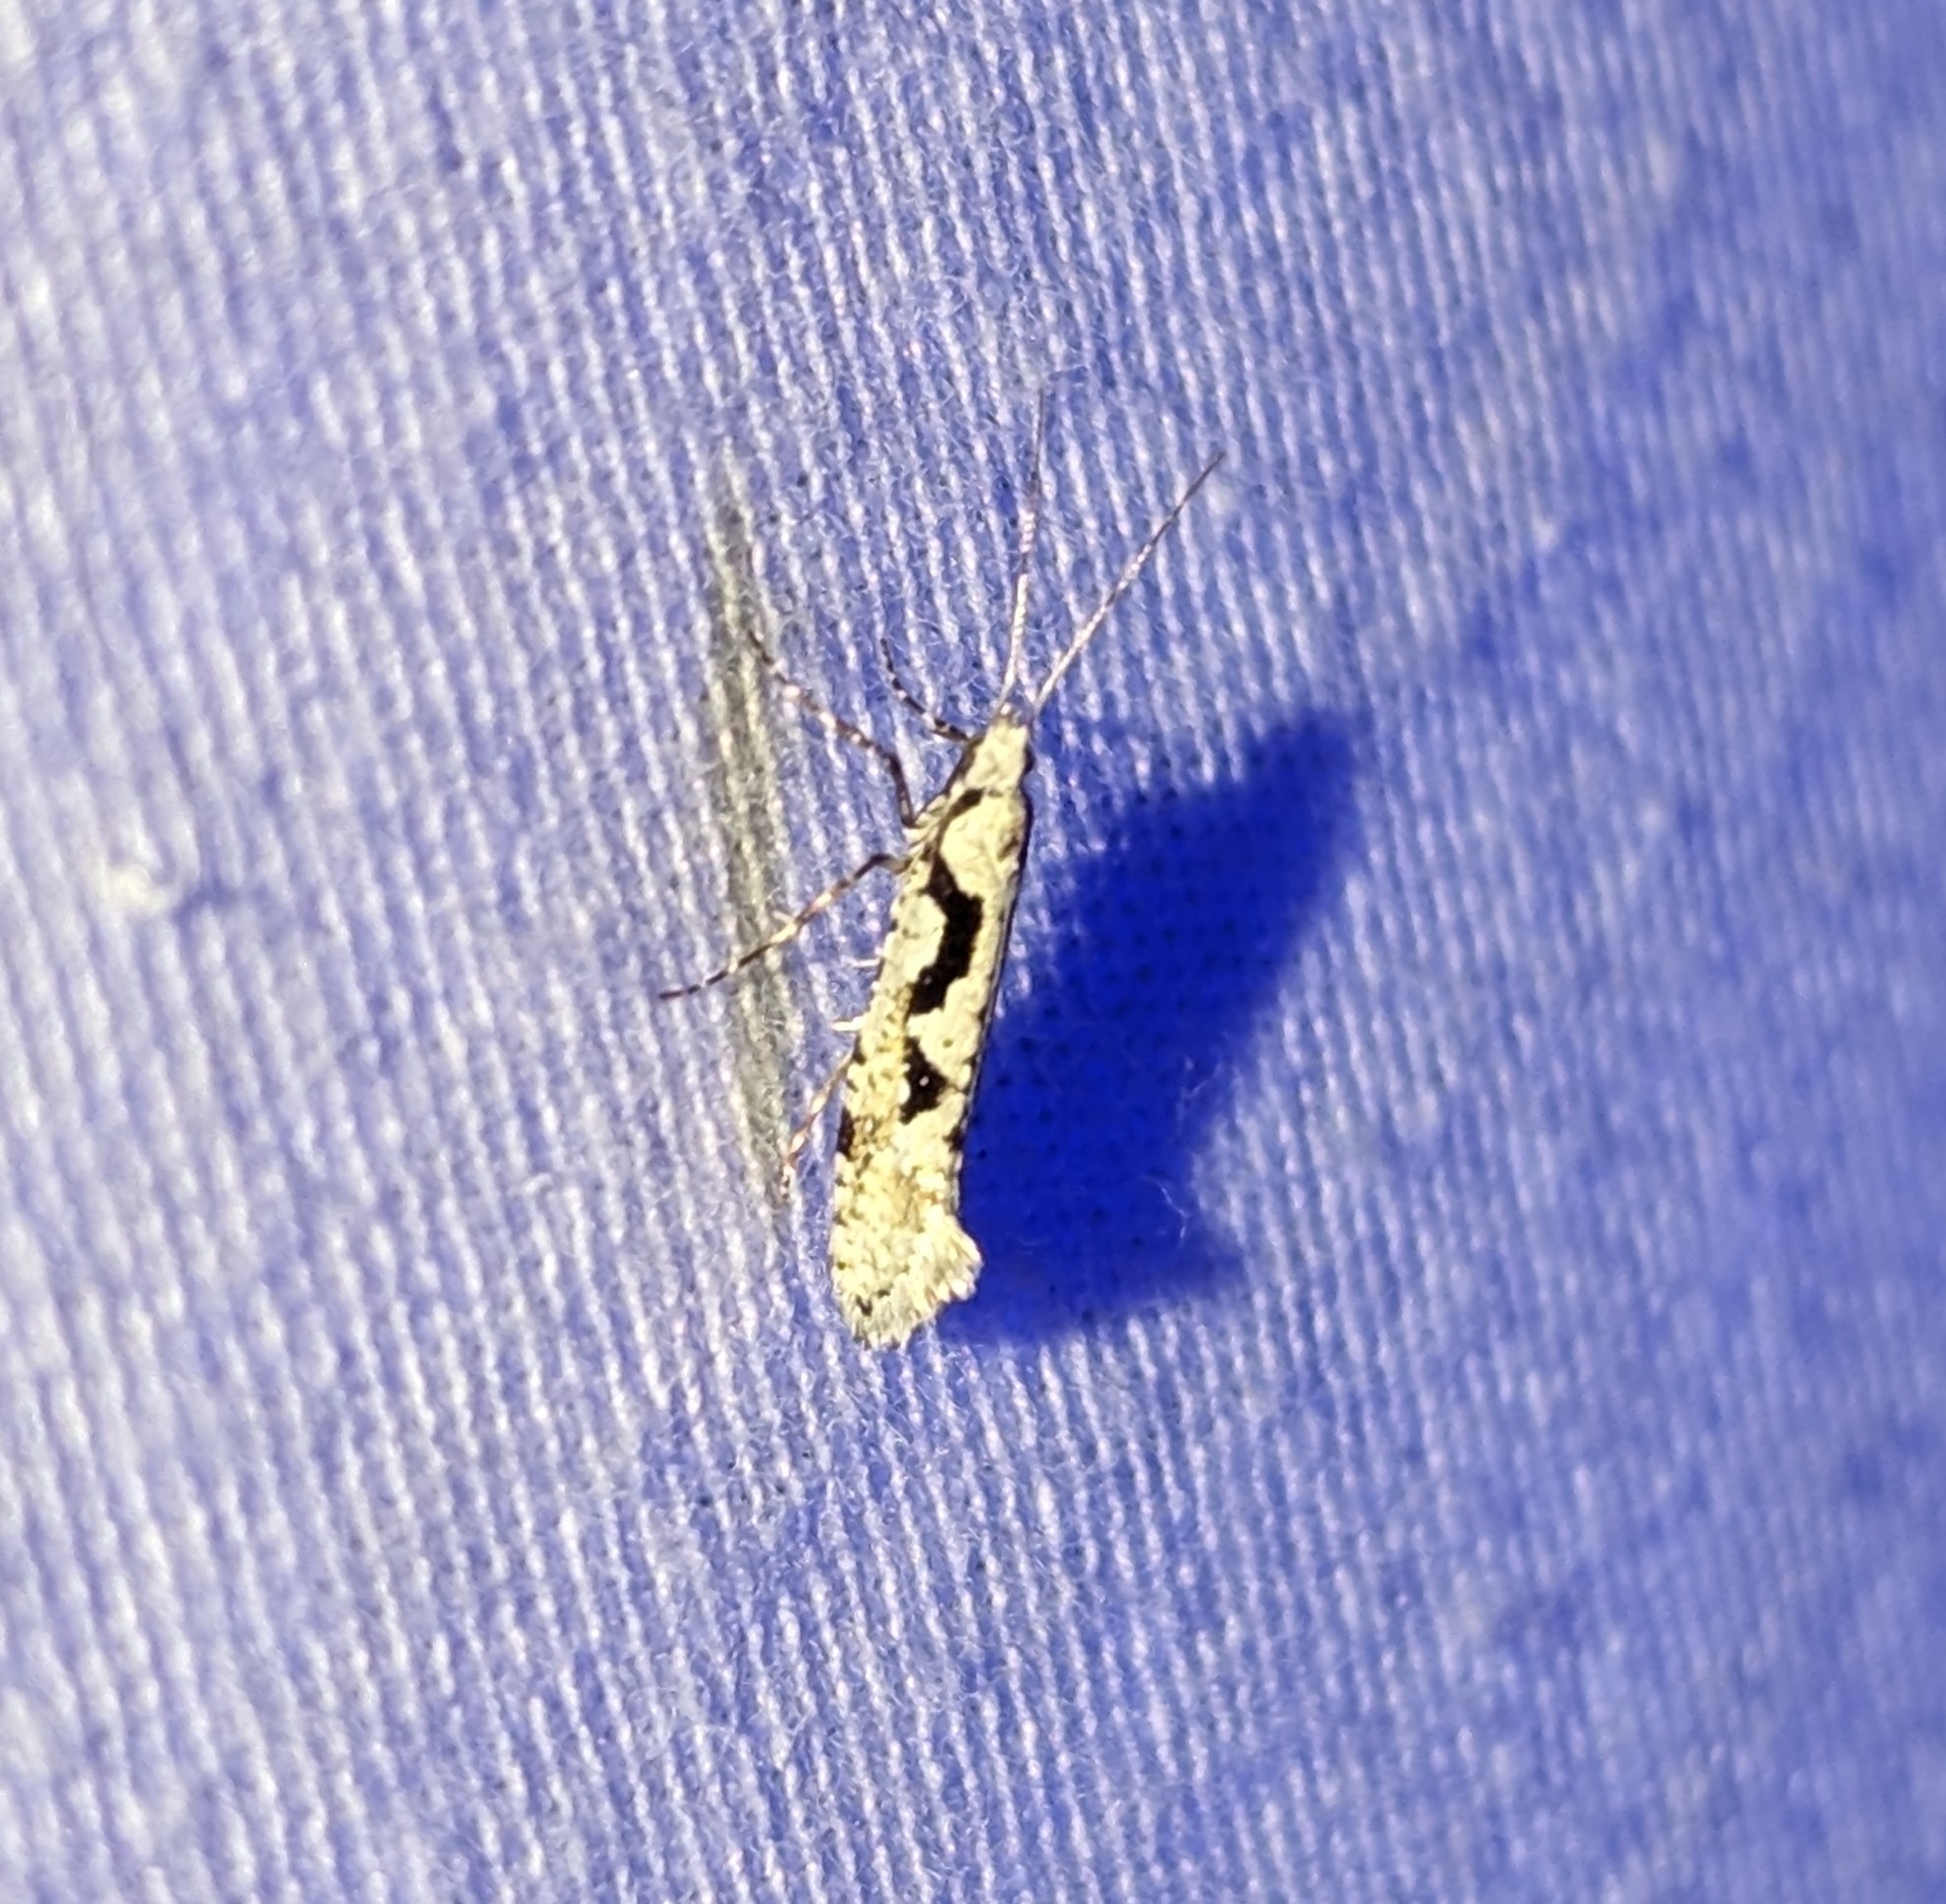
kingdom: Animalia
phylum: Arthropoda
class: Insecta
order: Lepidoptera
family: Plutellidae
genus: Rhigognostis
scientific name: Rhigognostis interrupta
